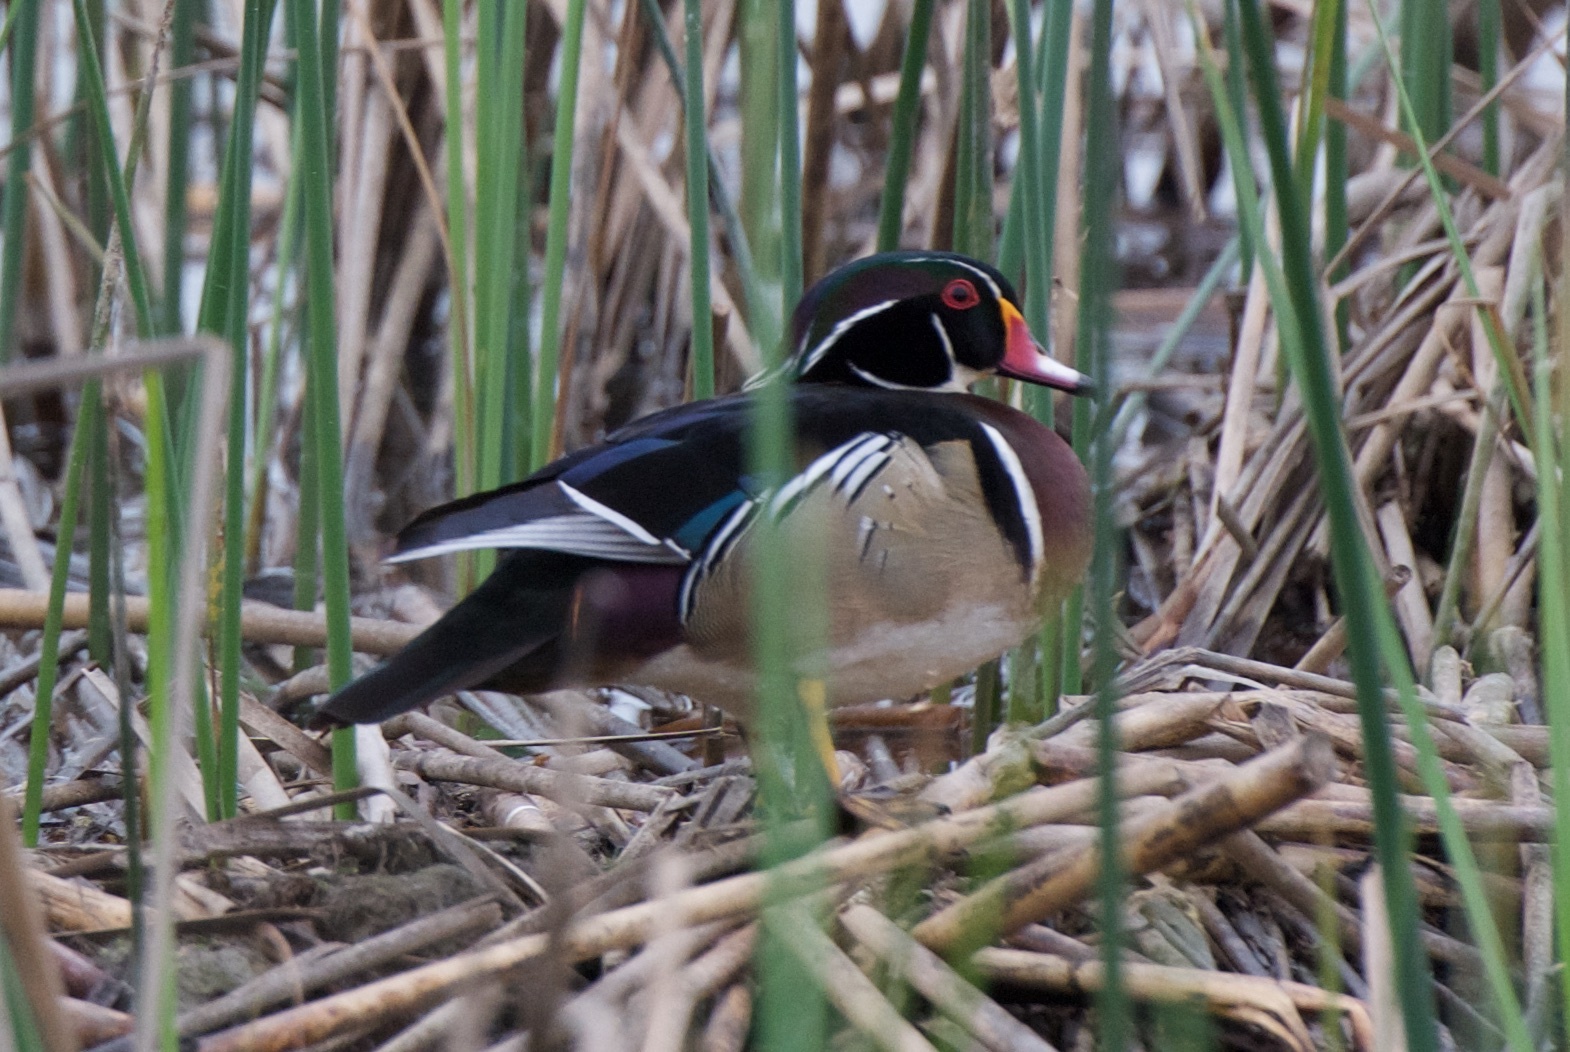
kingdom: Animalia
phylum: Chordata
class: Aves
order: Anseriformes
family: Anatidae
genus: Aix
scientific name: Aix sponsa
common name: Wood duck
